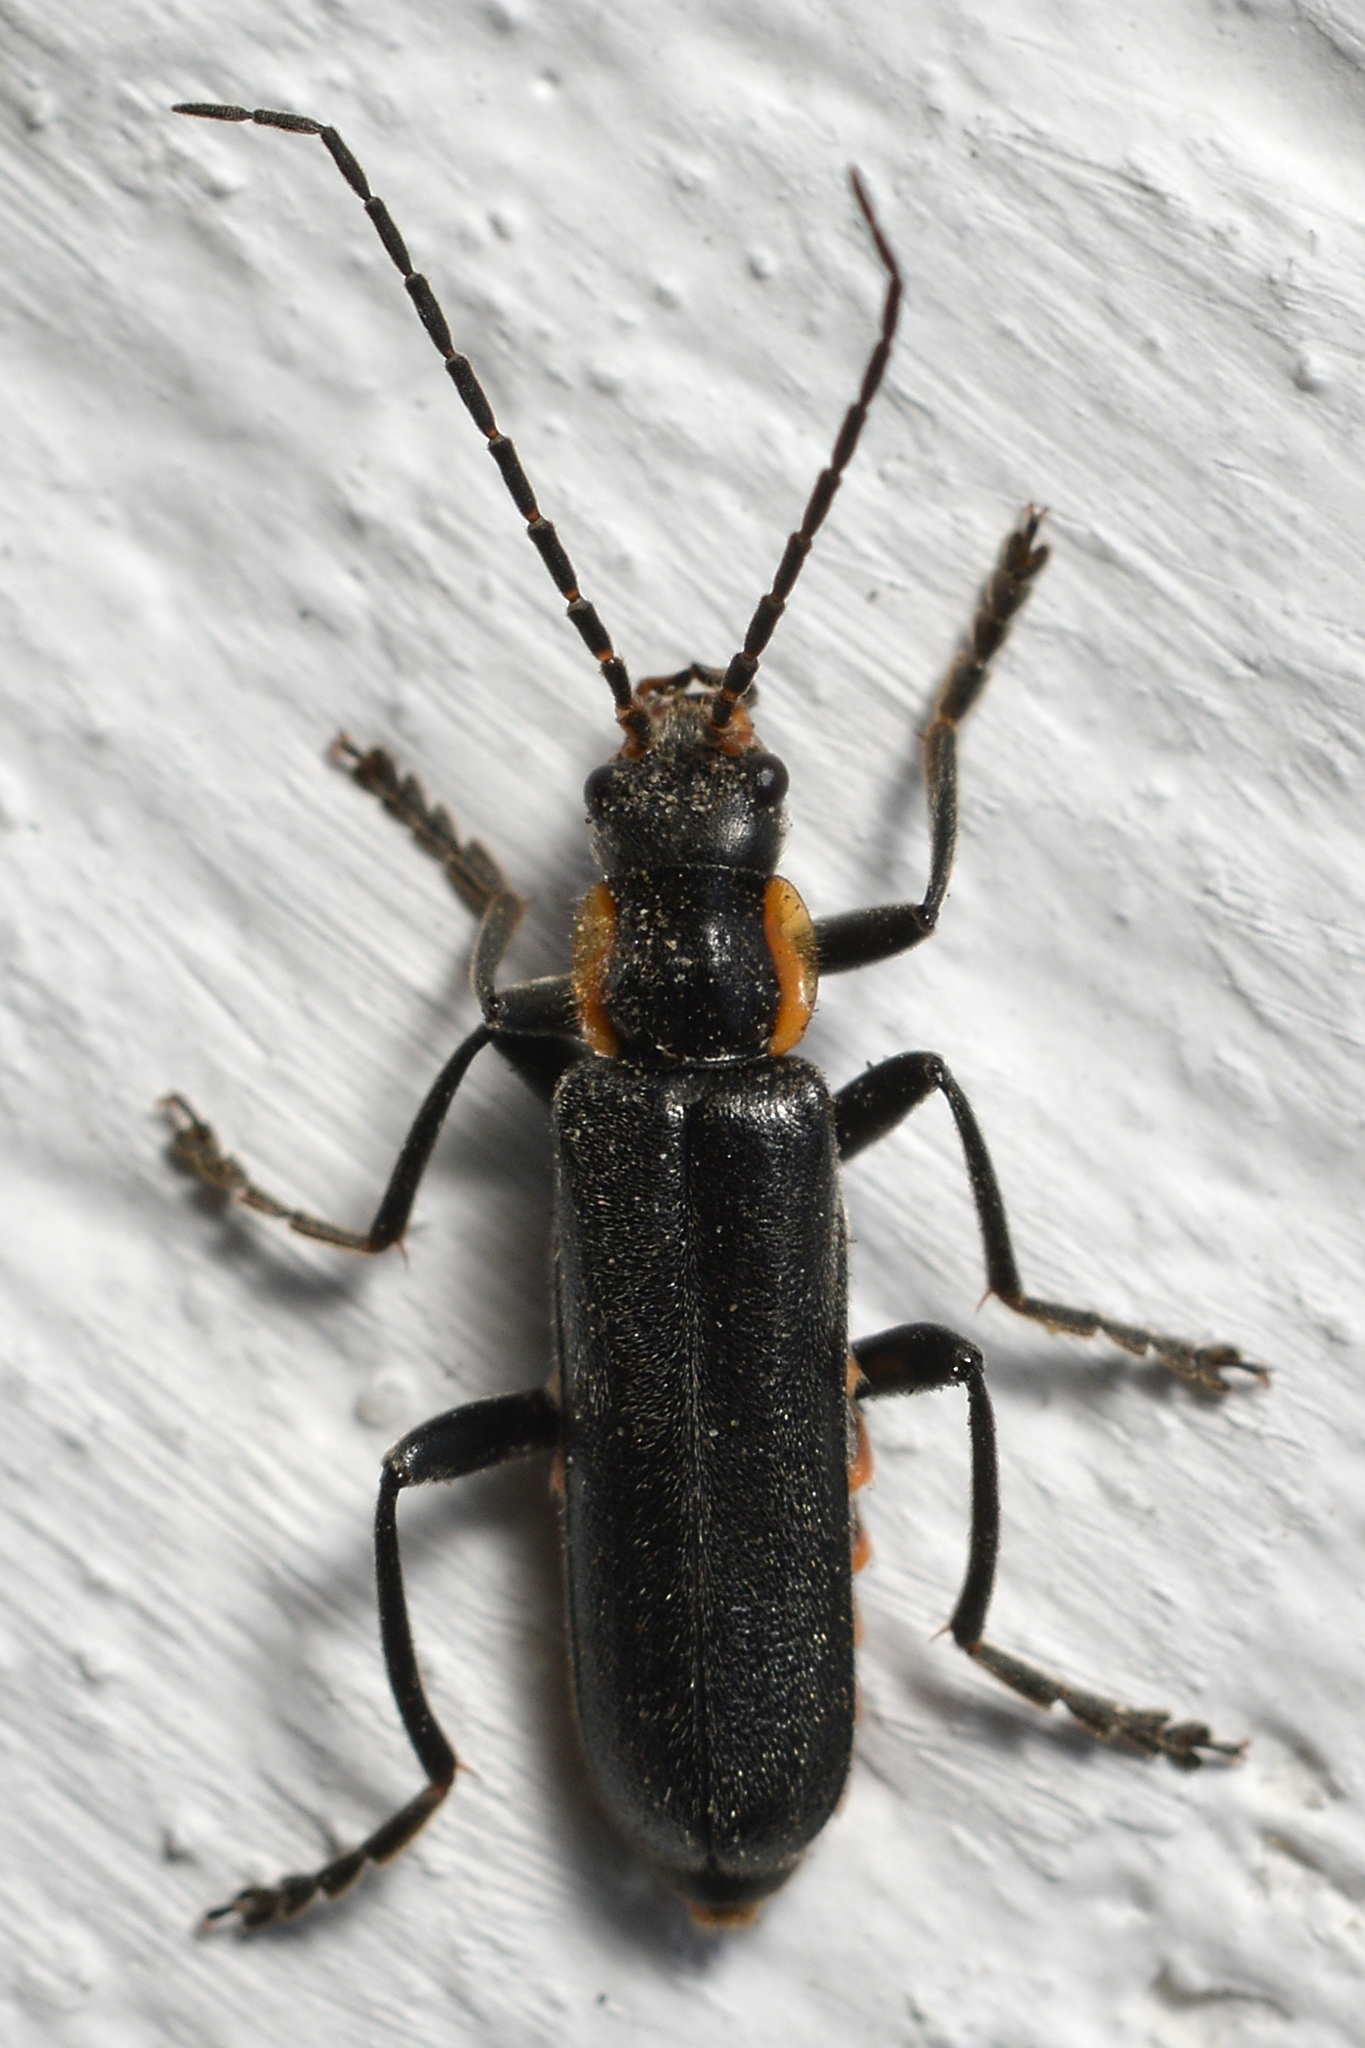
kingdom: Animalia
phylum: Arthropoda
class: Insecta
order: Coleoptera
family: Cantharidae
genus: Cantharis
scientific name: Cantharis obscura
